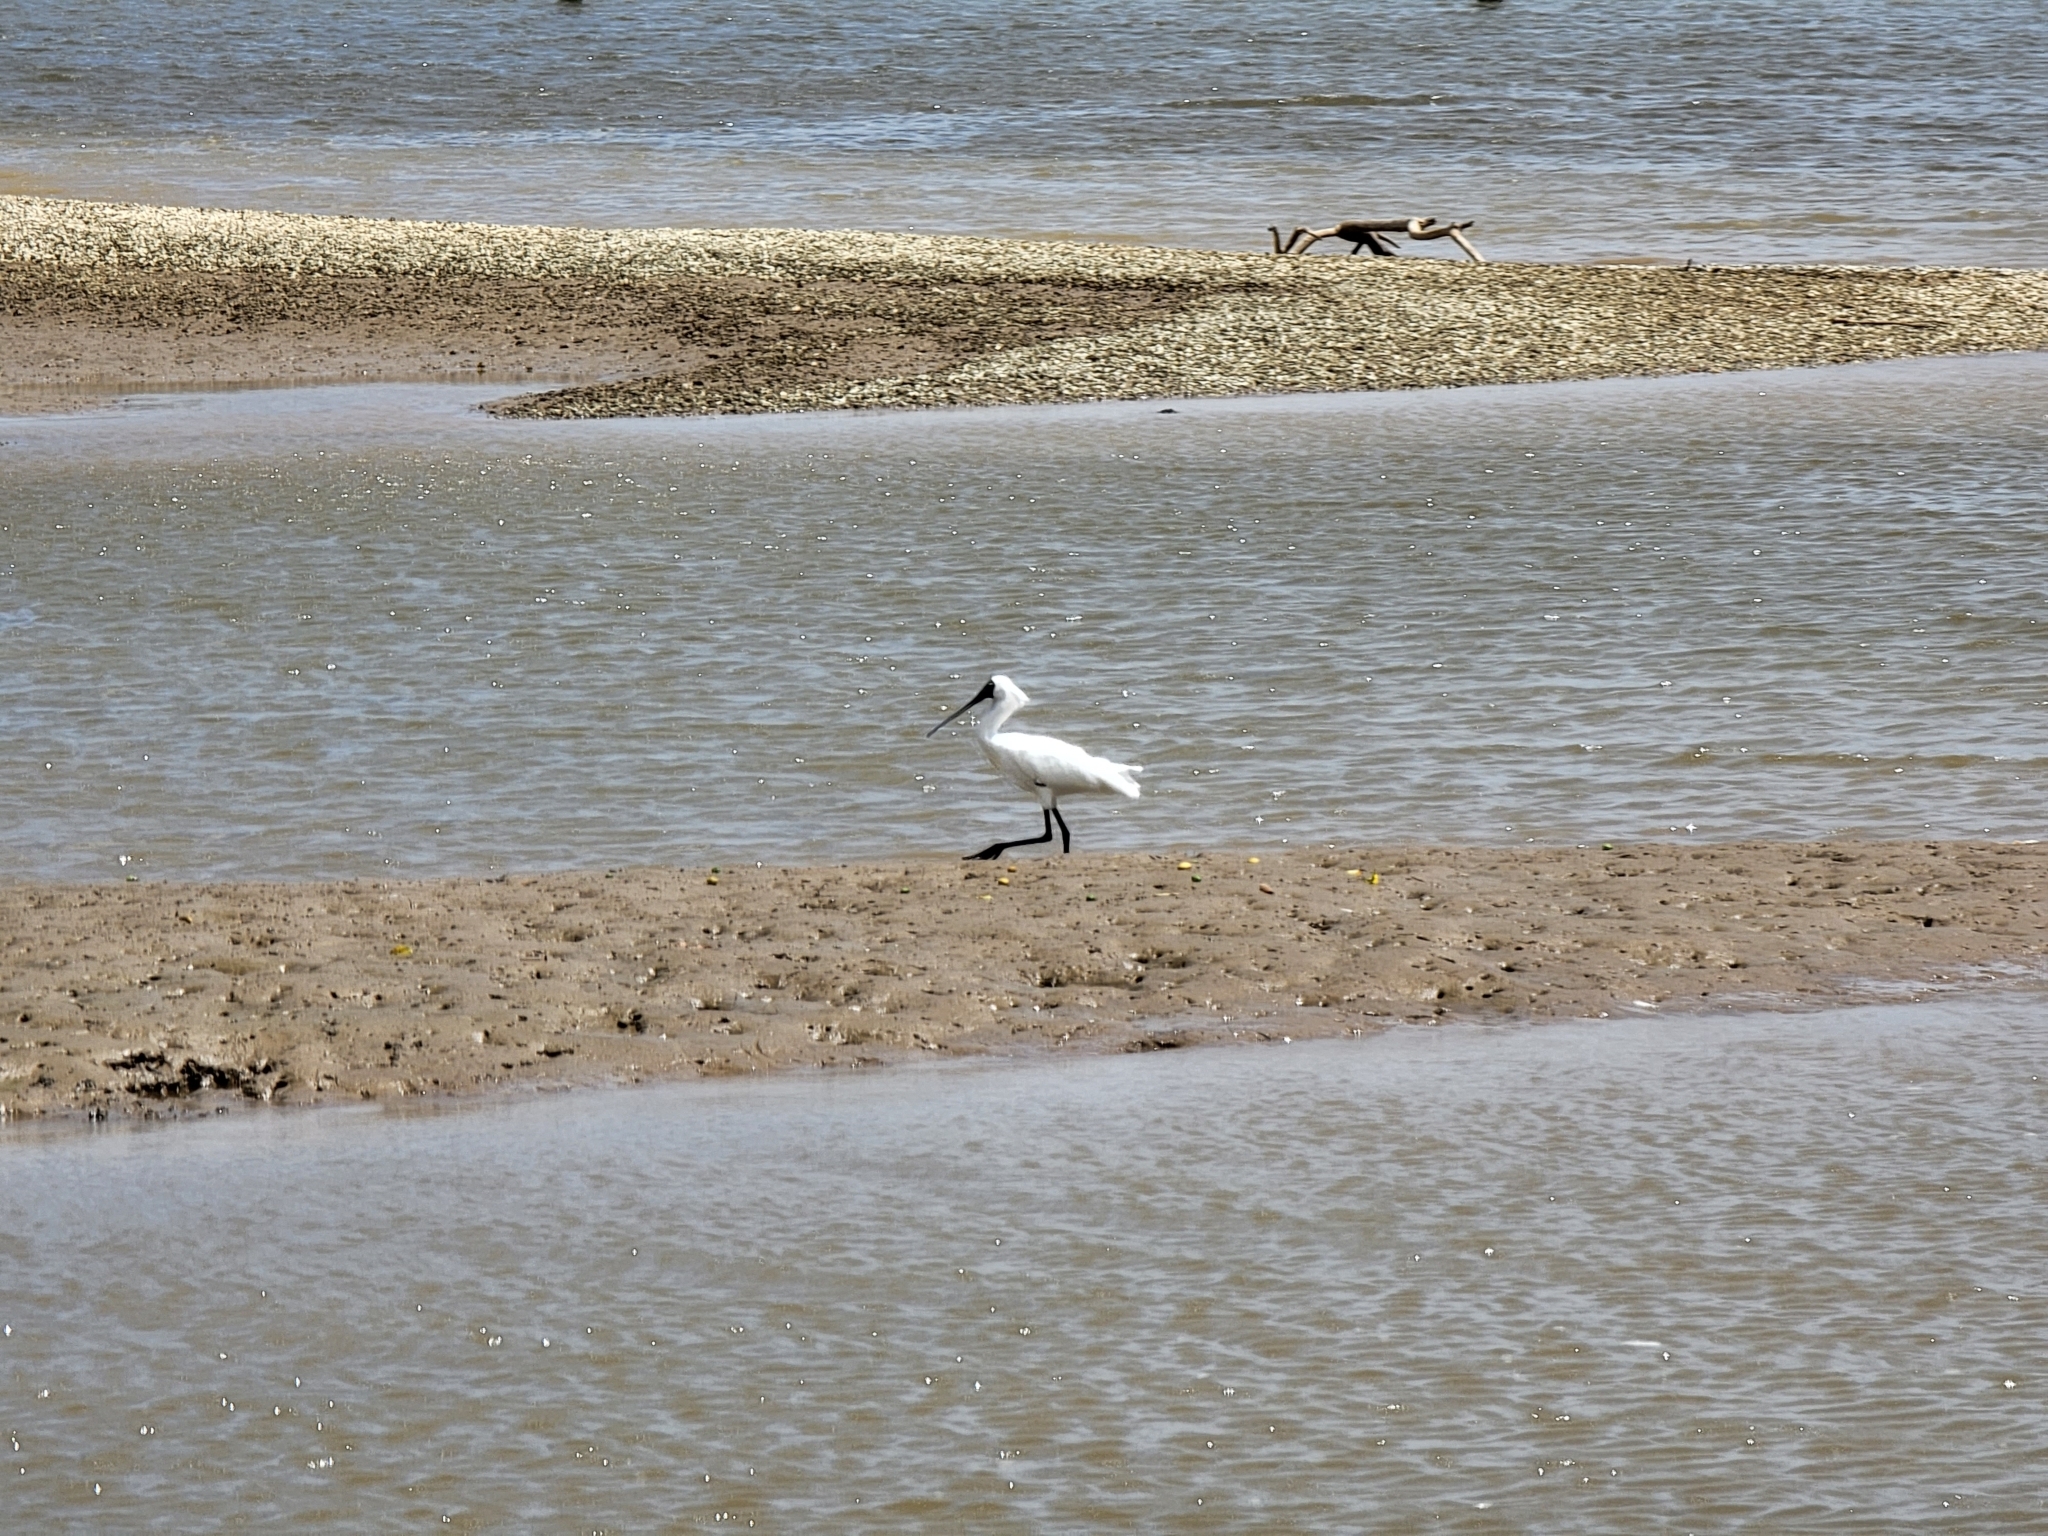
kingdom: Animalia
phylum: Chordata
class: Aves
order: Pelecaniformes
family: Threskiornithidae
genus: Platalea
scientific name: Platalea regia
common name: Royal spoonbill
